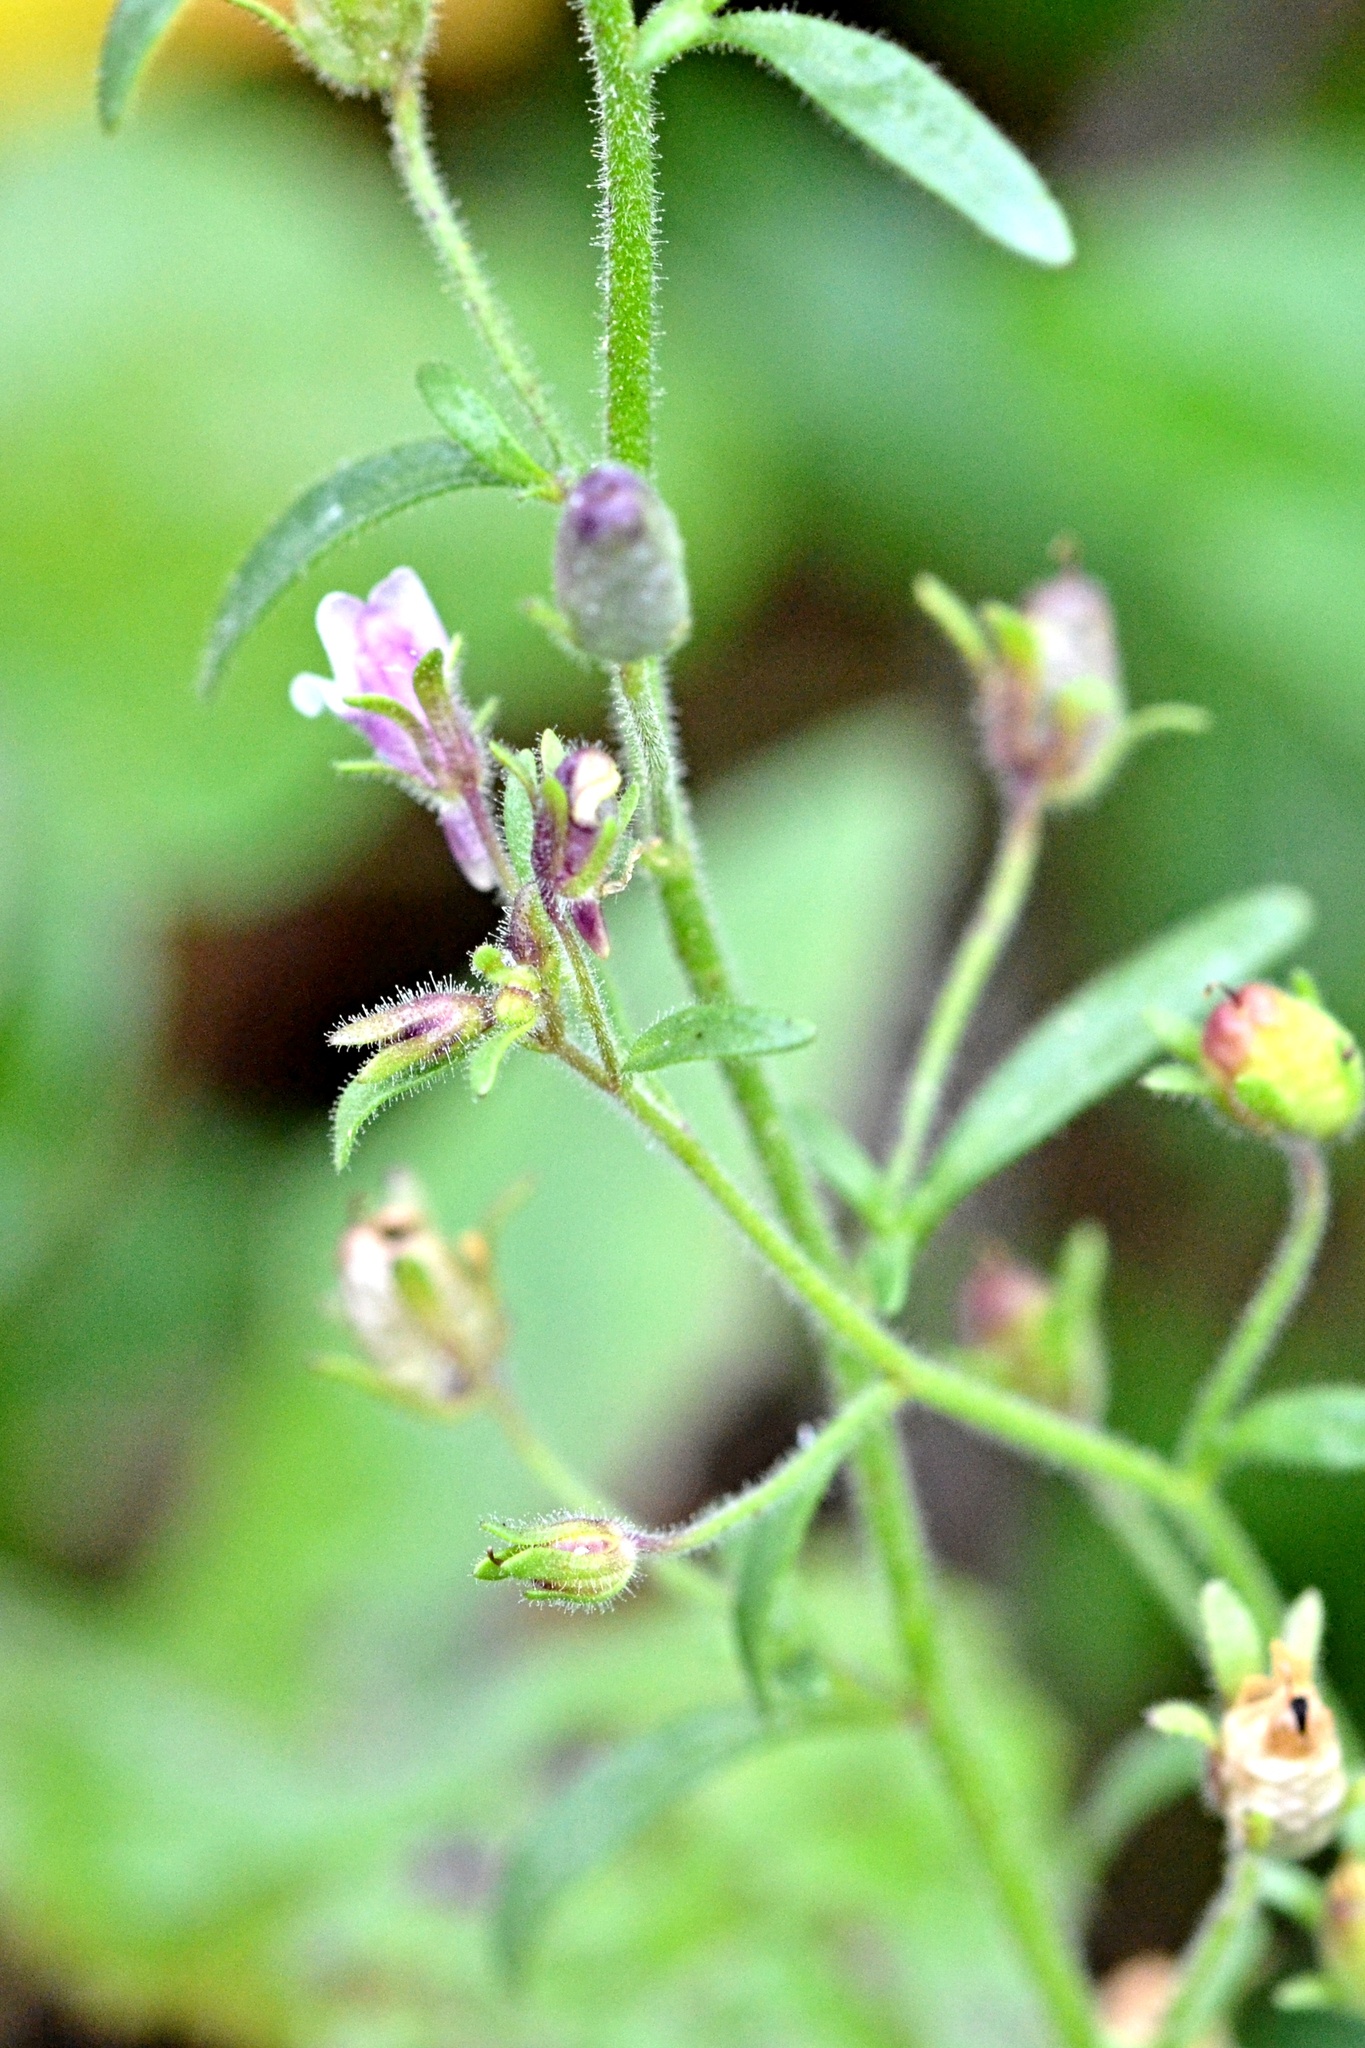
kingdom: Plantae
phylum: Tracheophyta
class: Magnoliopsida
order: Lamiales
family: Plantaginaceae
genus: Chaenorhinum
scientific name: Chaenorhinum minus
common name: Dwarf snapdragon
